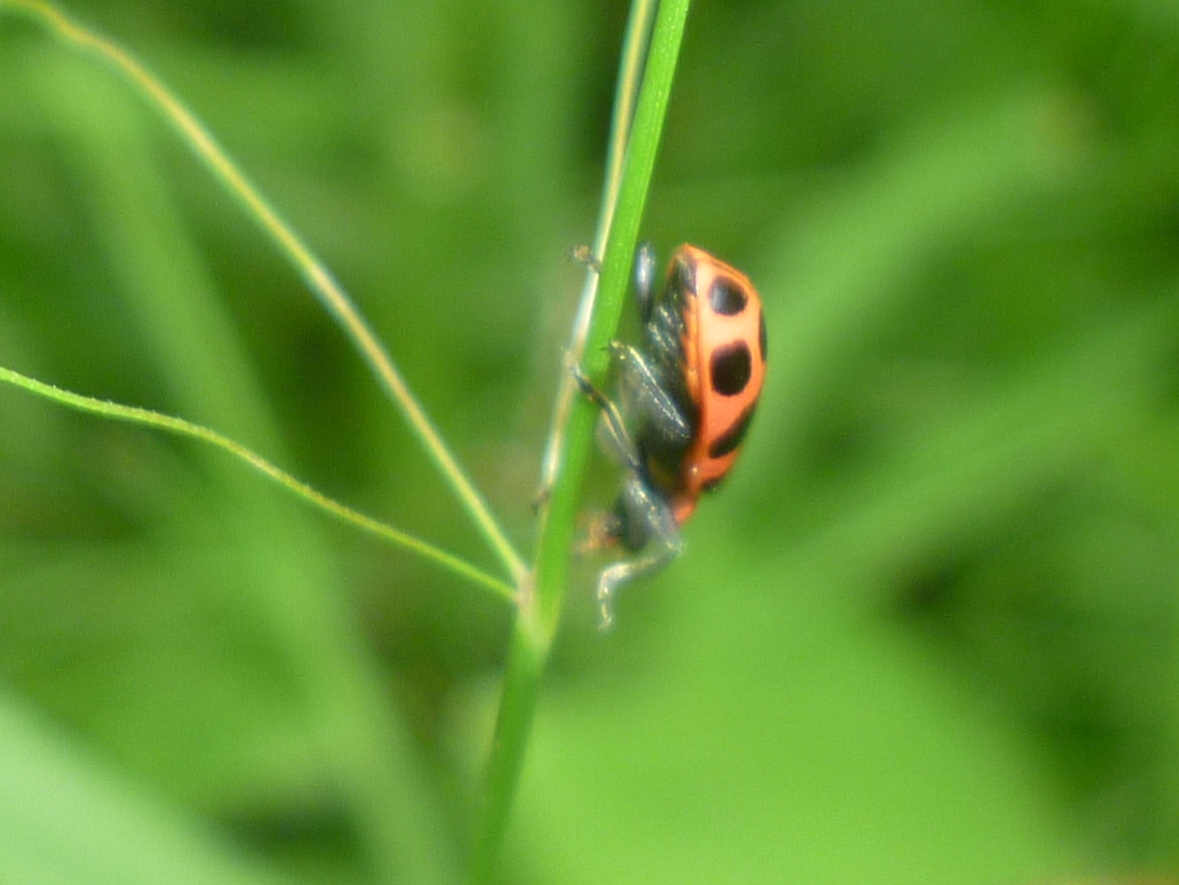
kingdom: Animalia
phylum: Arthropoda
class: Insecta
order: Coleoptera
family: Coccinellidae
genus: Coleomegilla
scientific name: Coleomegilla maculata
